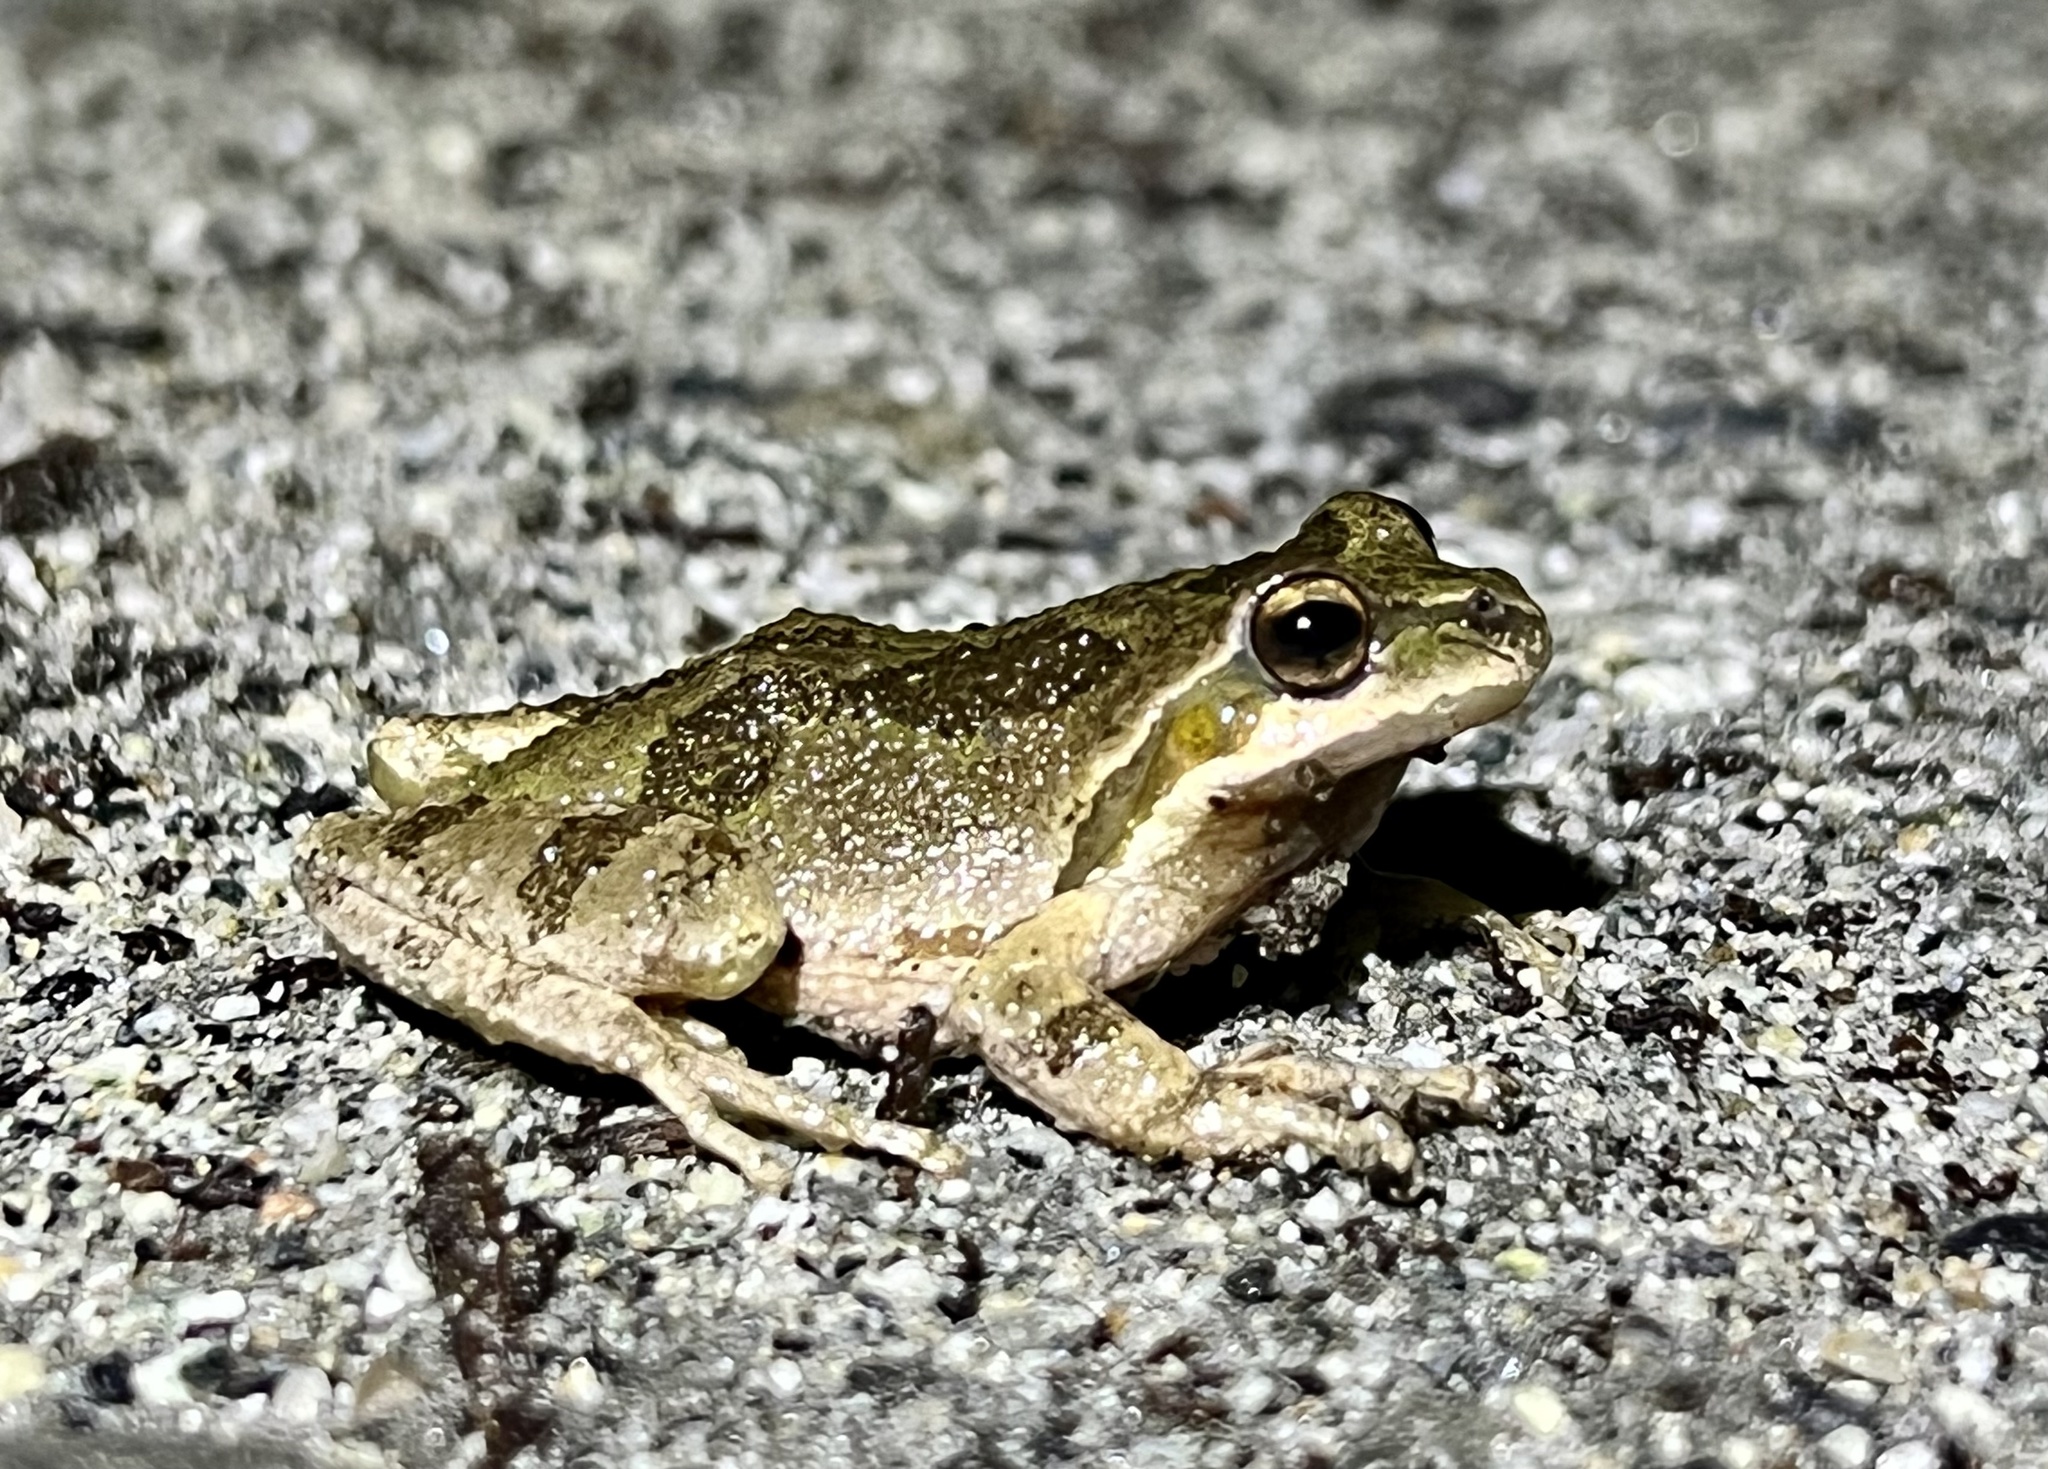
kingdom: Animalia
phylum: Chordata
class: Amphibia
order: Anura
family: Hylidae
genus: Pseudacris
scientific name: Pseudacris regilla
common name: Pacific chorus frog
